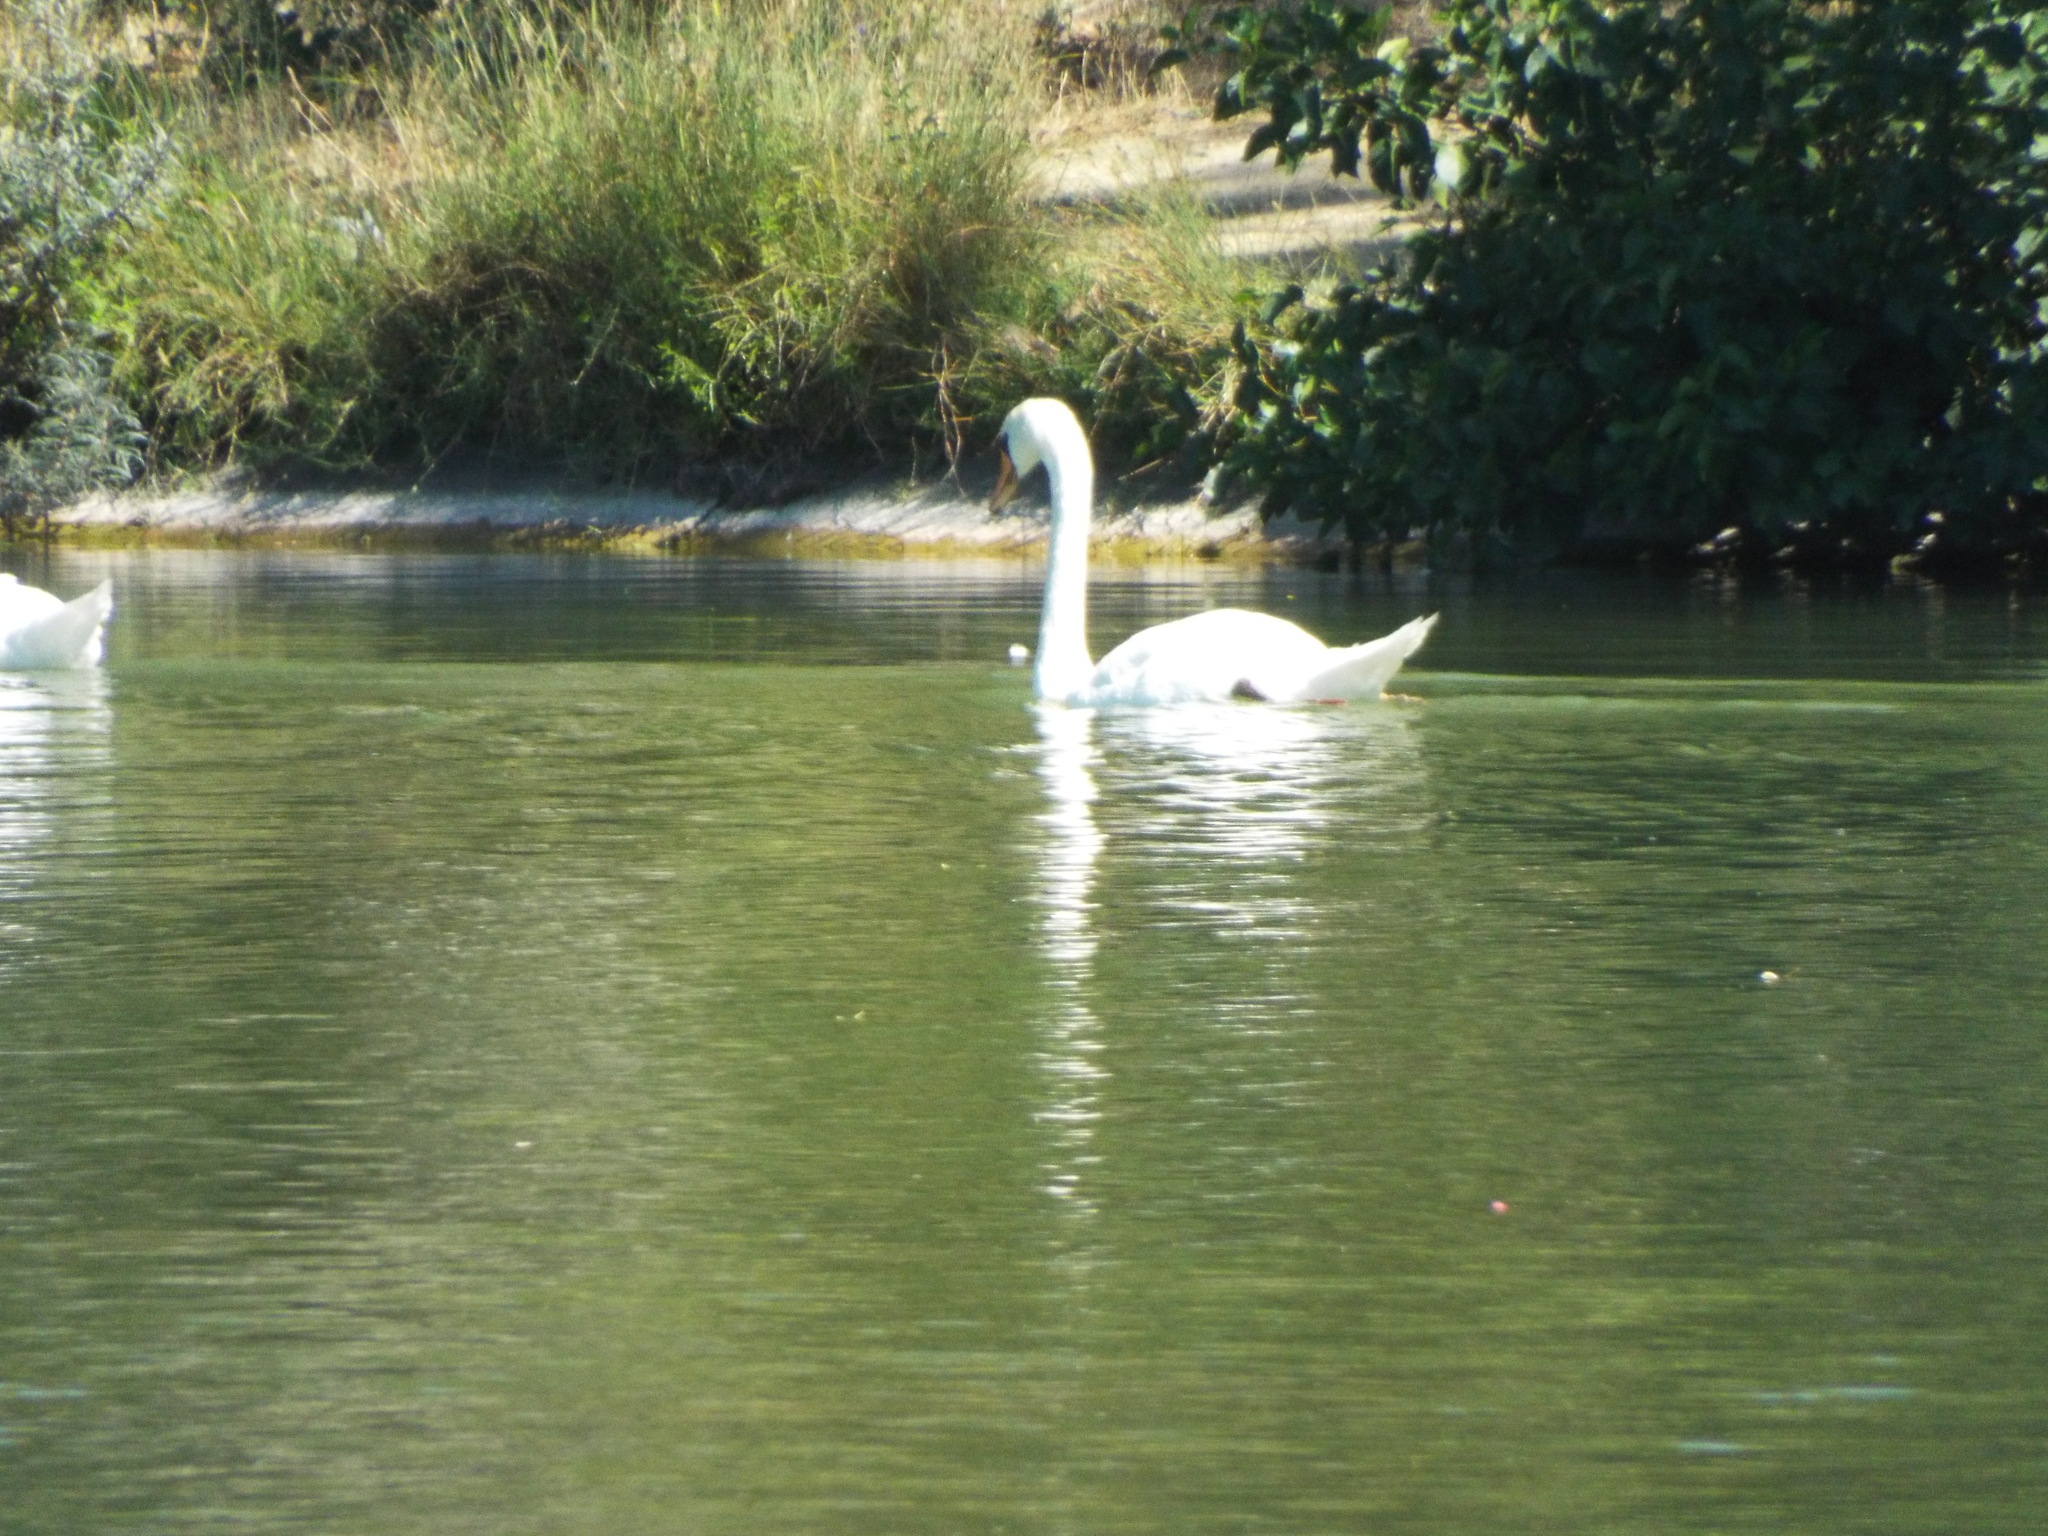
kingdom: Animalia
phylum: Chordata
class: Aves
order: Anseriformes
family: Anatidae
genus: Cygnus
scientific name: Cygnus olor
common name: Mute swan
